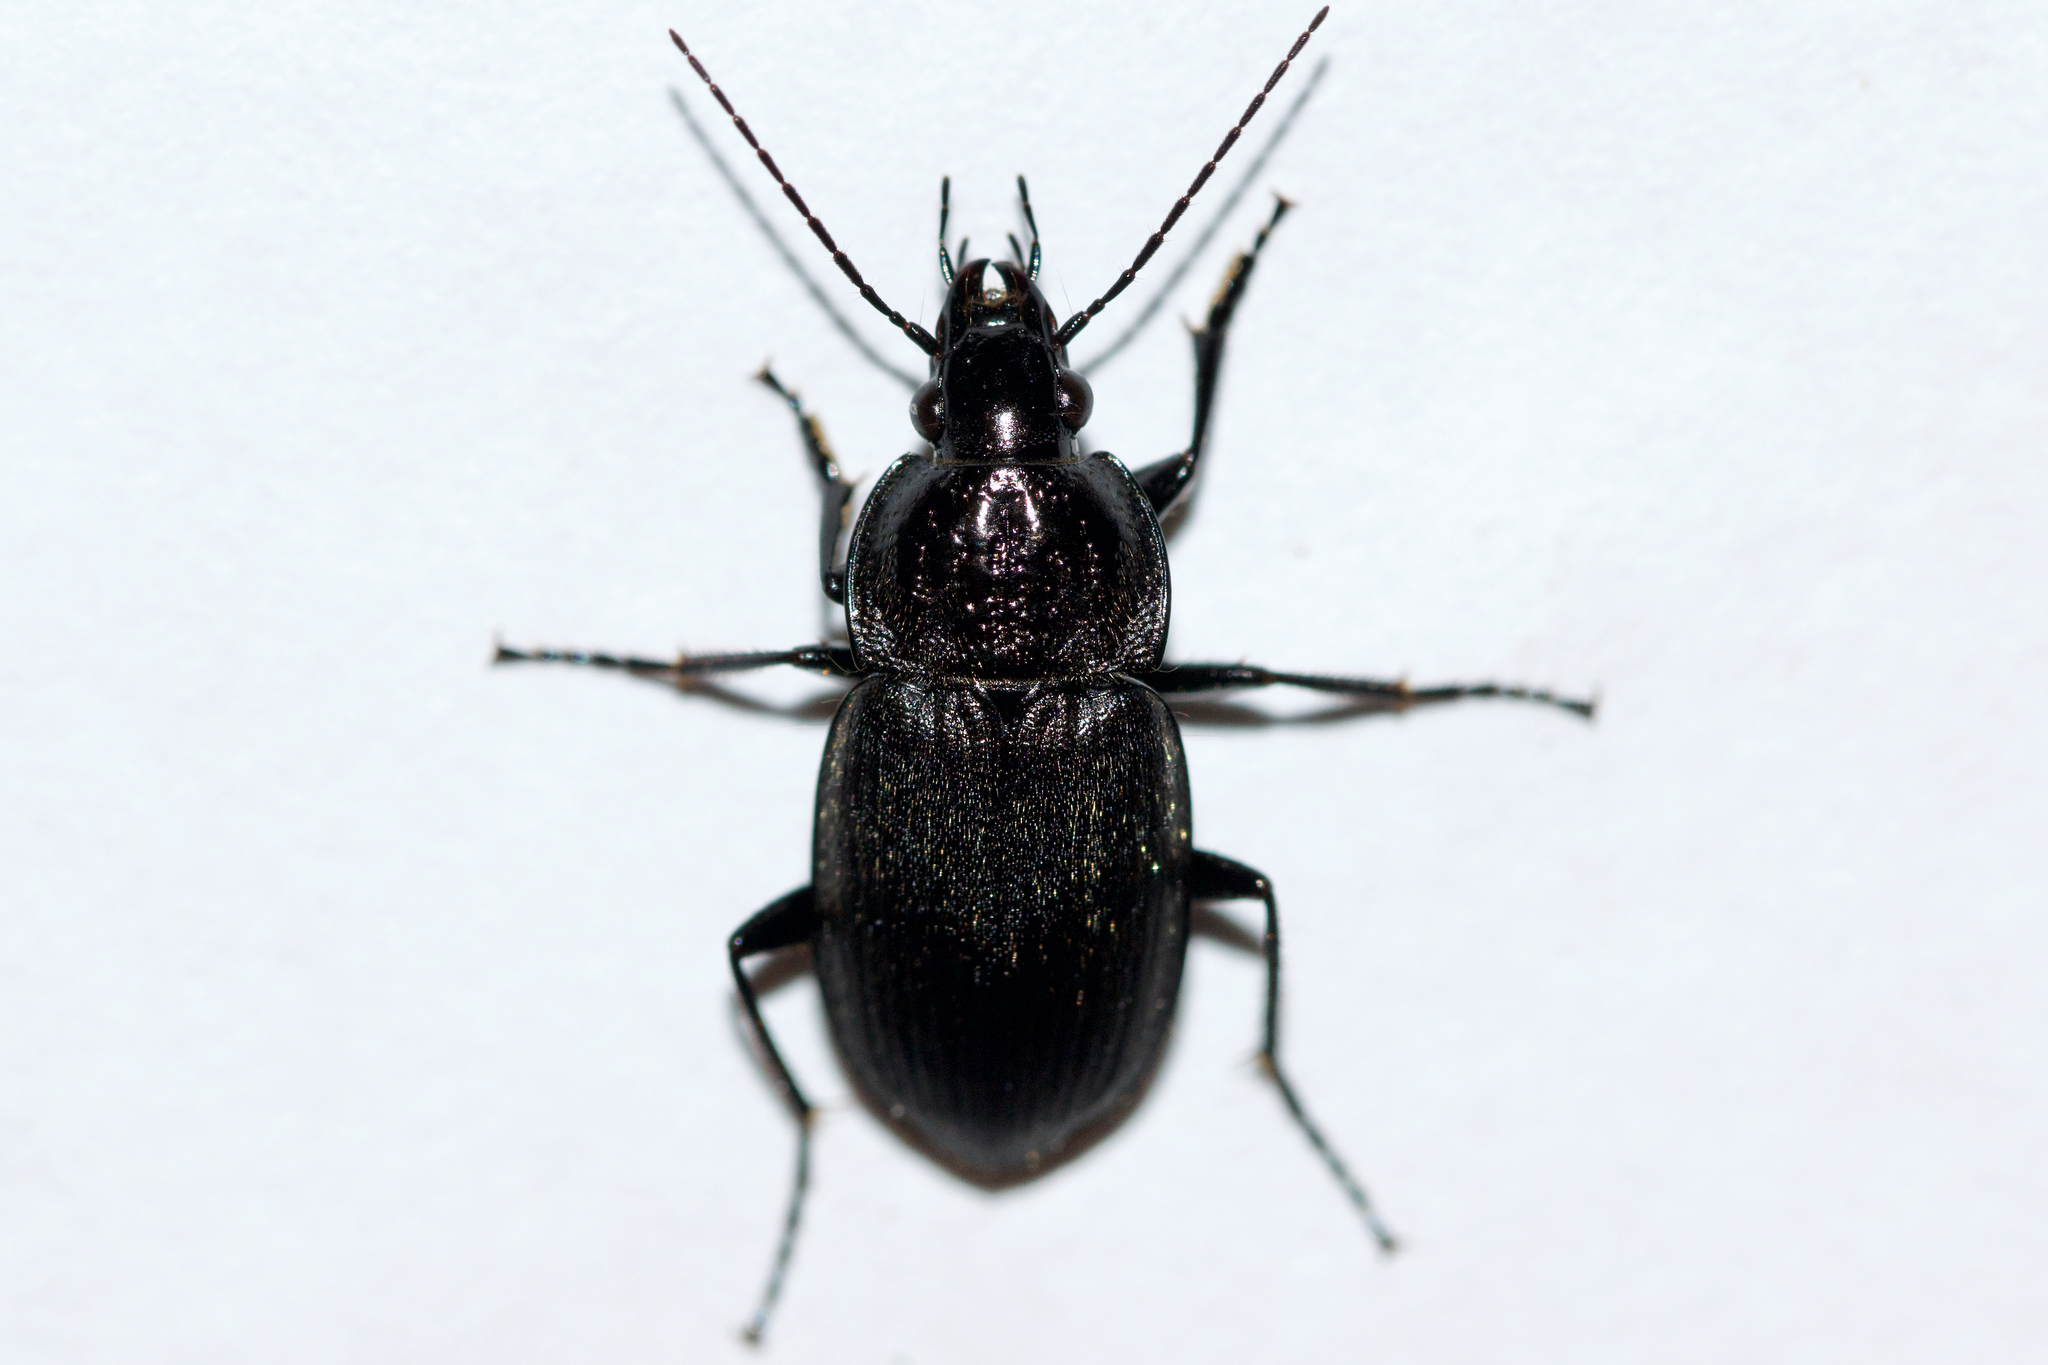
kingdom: Animalia
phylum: Arthropoda
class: Insecta
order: Coleoptera
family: Carabidae
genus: Chlaenius
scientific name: Chlaenius niger
